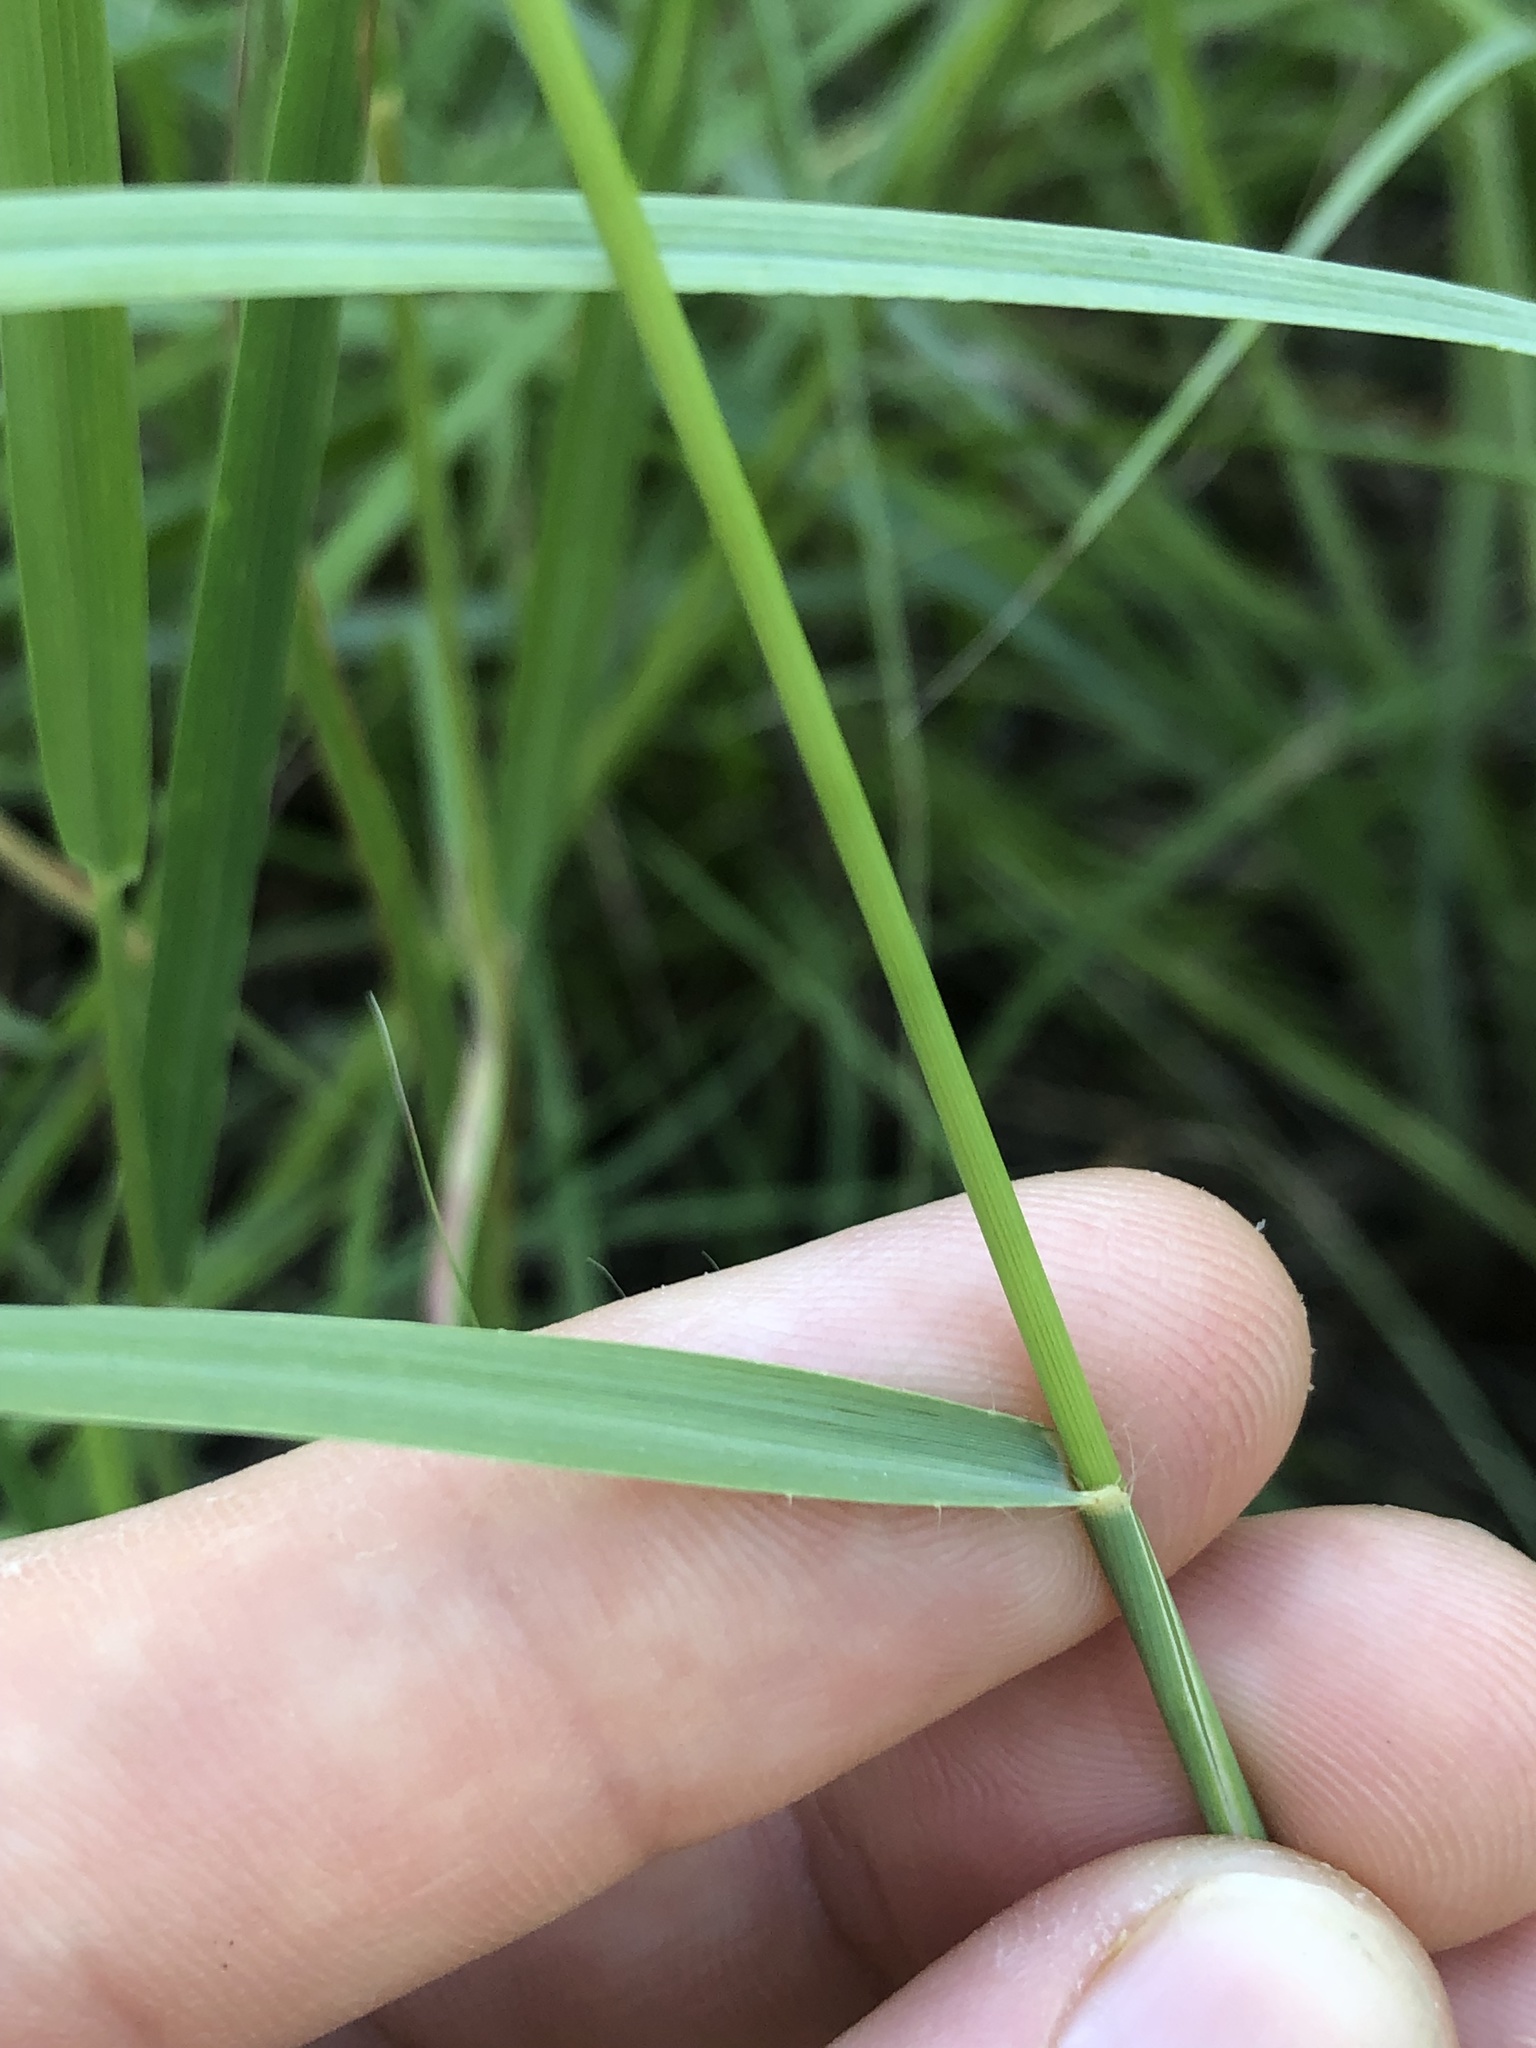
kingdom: Plantae
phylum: Tracheophyta
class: Liliopsida
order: Poales
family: Poaceae
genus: Bouteloua
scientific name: Bouteloua curtipendula
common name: Side-oats grama
